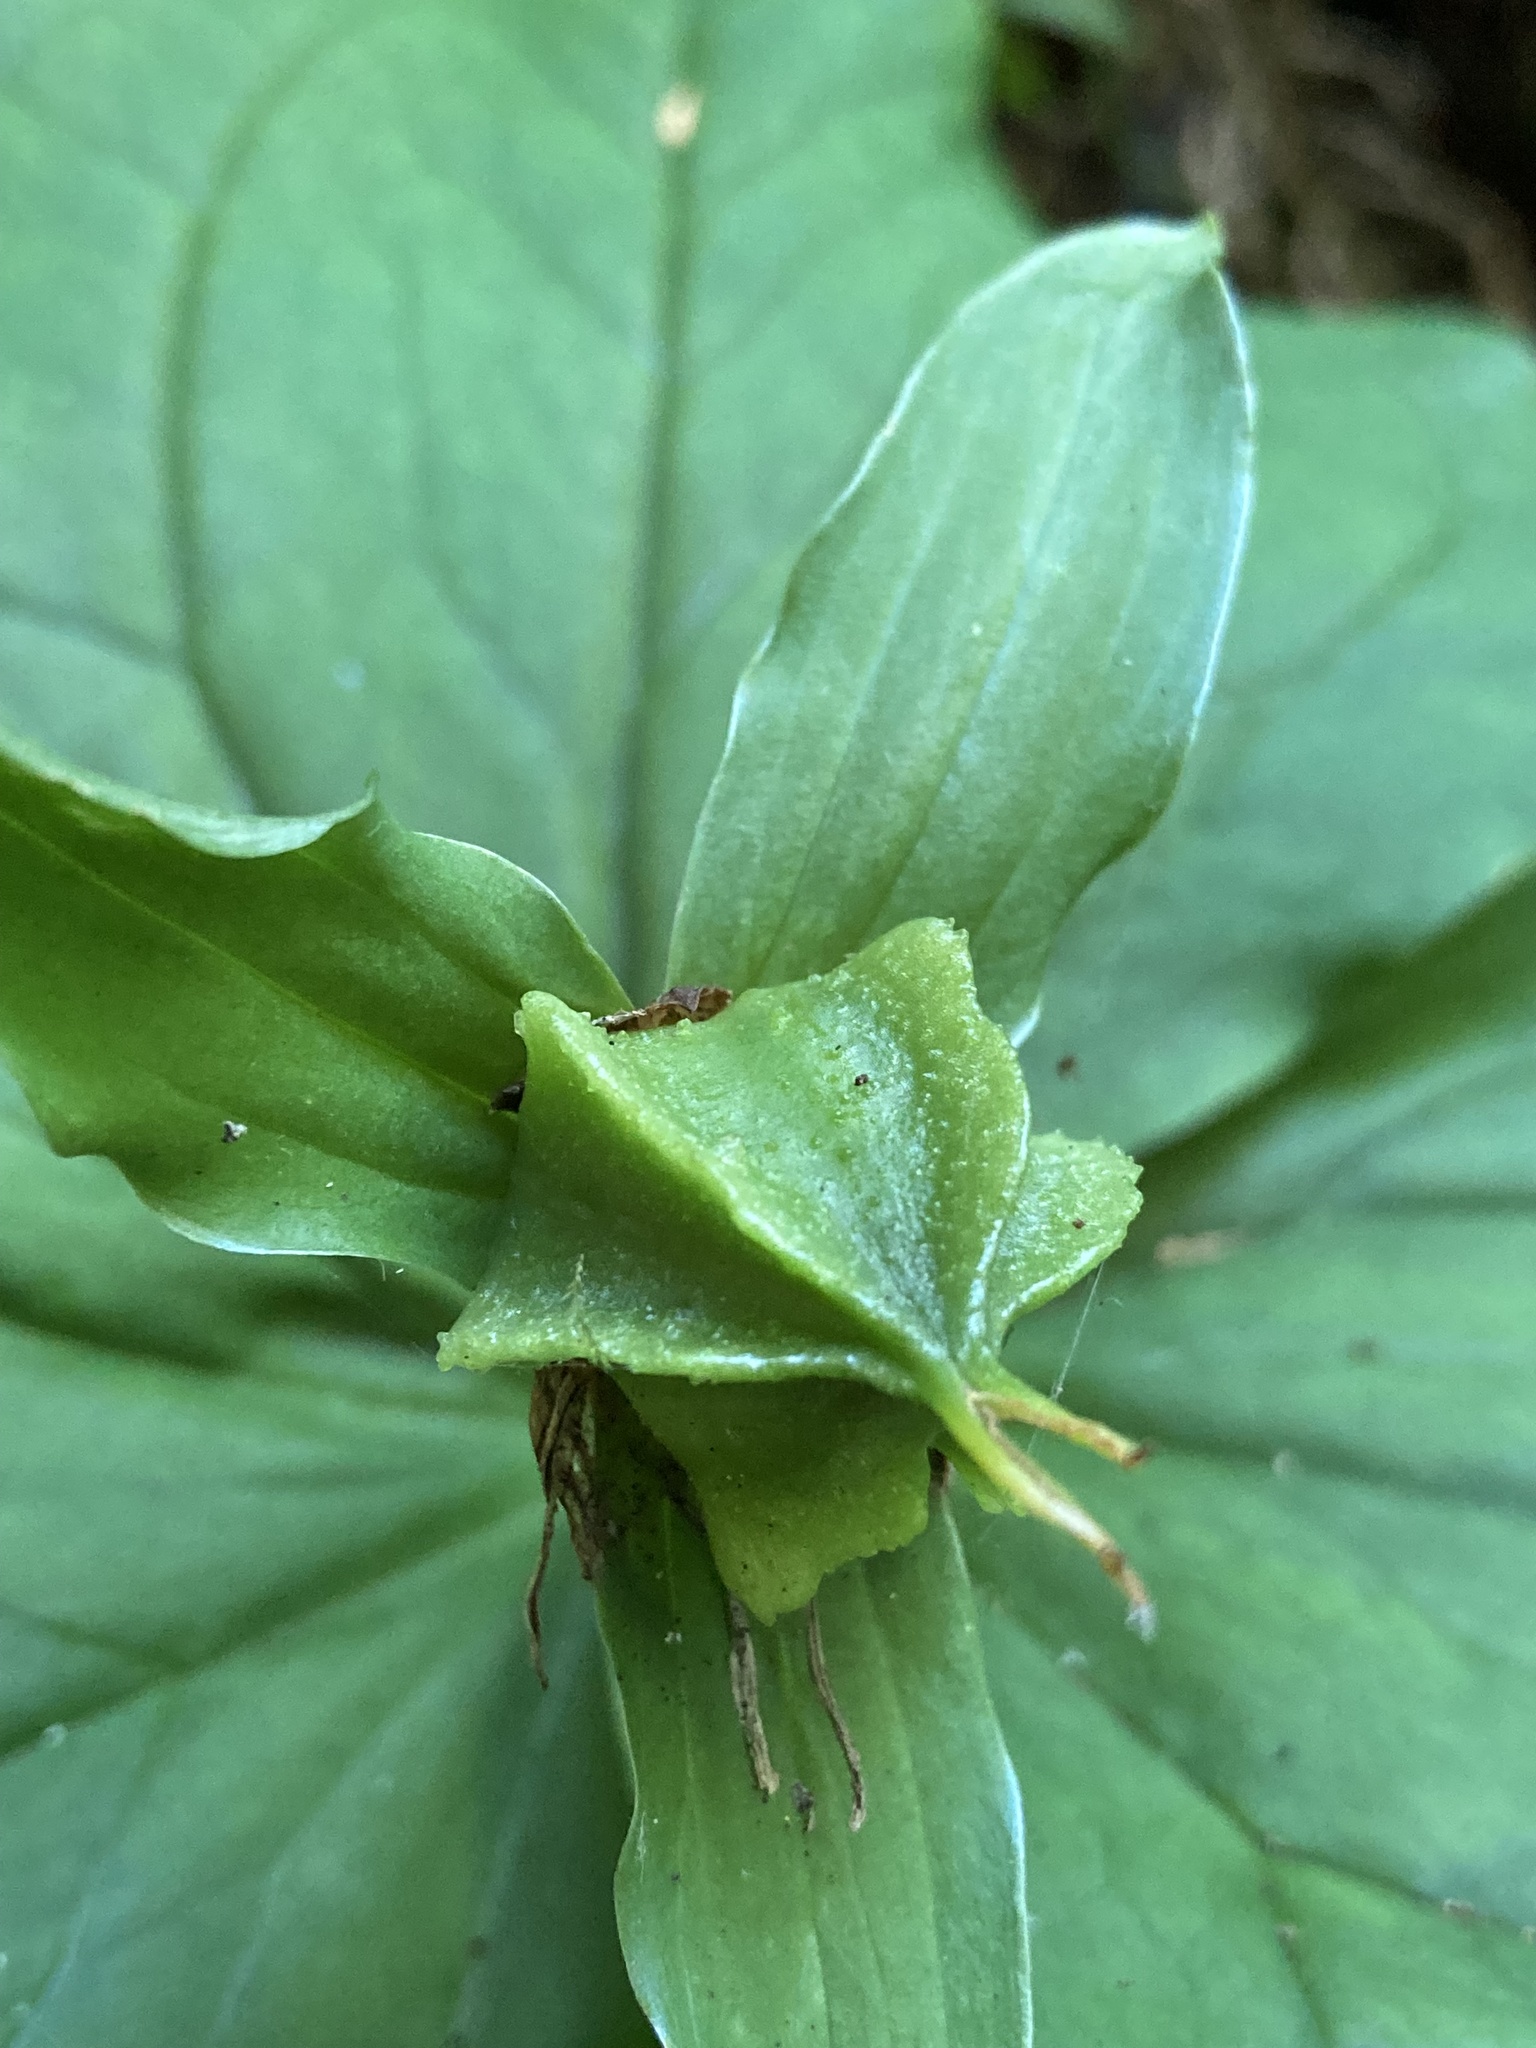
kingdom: Plantae
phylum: Tracheophyta
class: Liliopsida
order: Liliales
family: Melanthiaceae
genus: Trillium
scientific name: Trillium ovatum
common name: Pacific trillium
